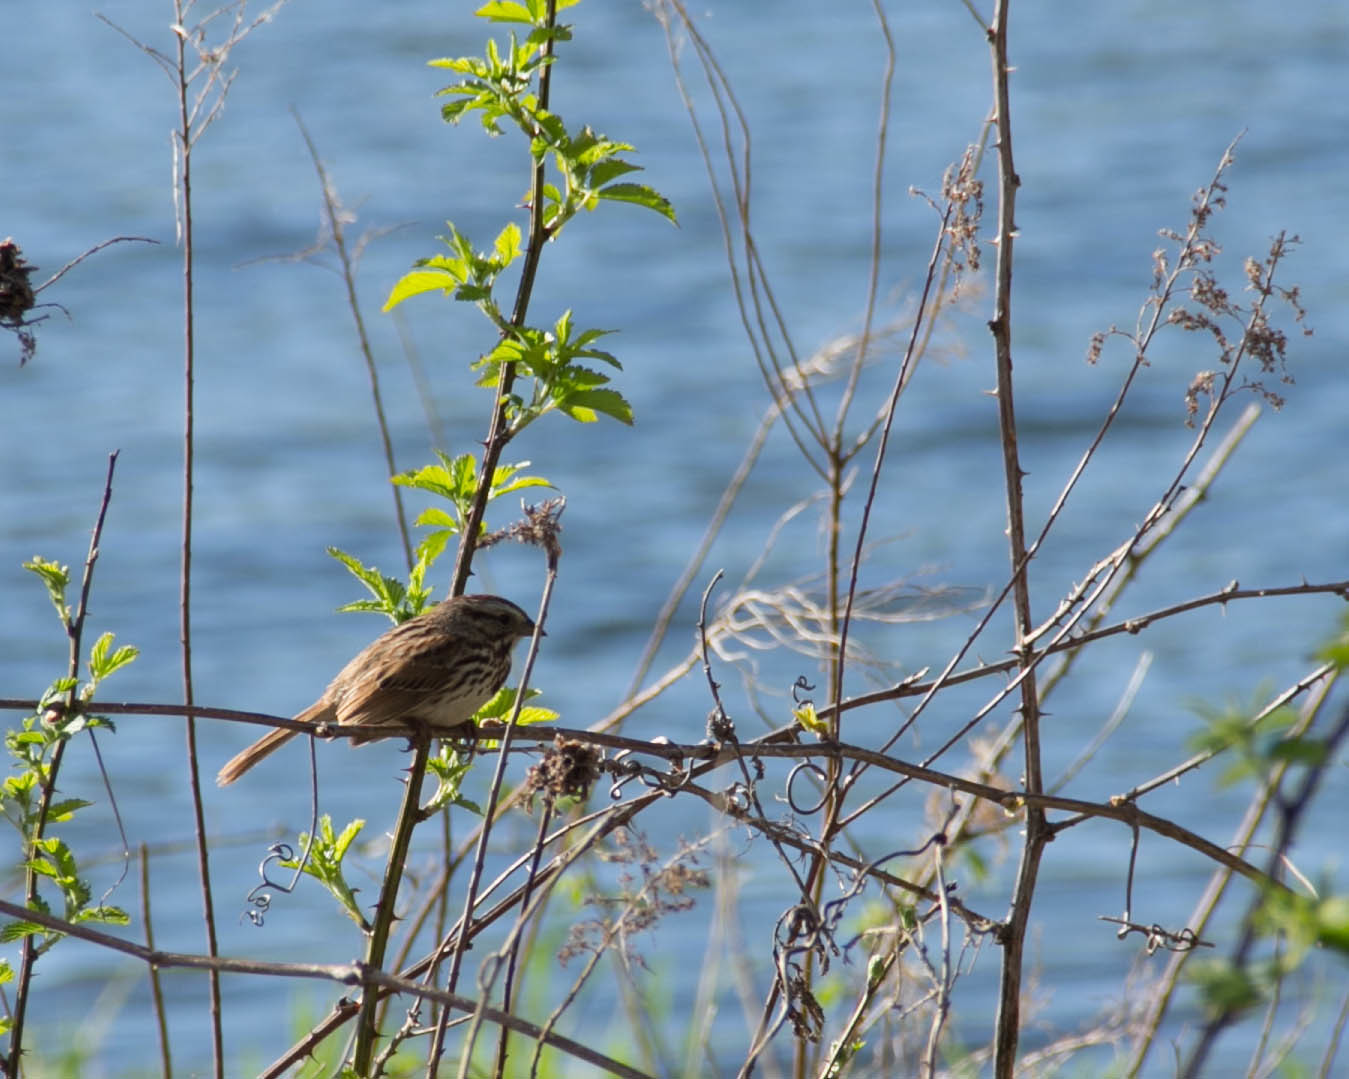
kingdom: Animalia
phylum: Chordata
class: Aves
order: Passeriformes
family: Passerellidae
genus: Melospiza
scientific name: Melospiza melodia
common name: Song sparrow
